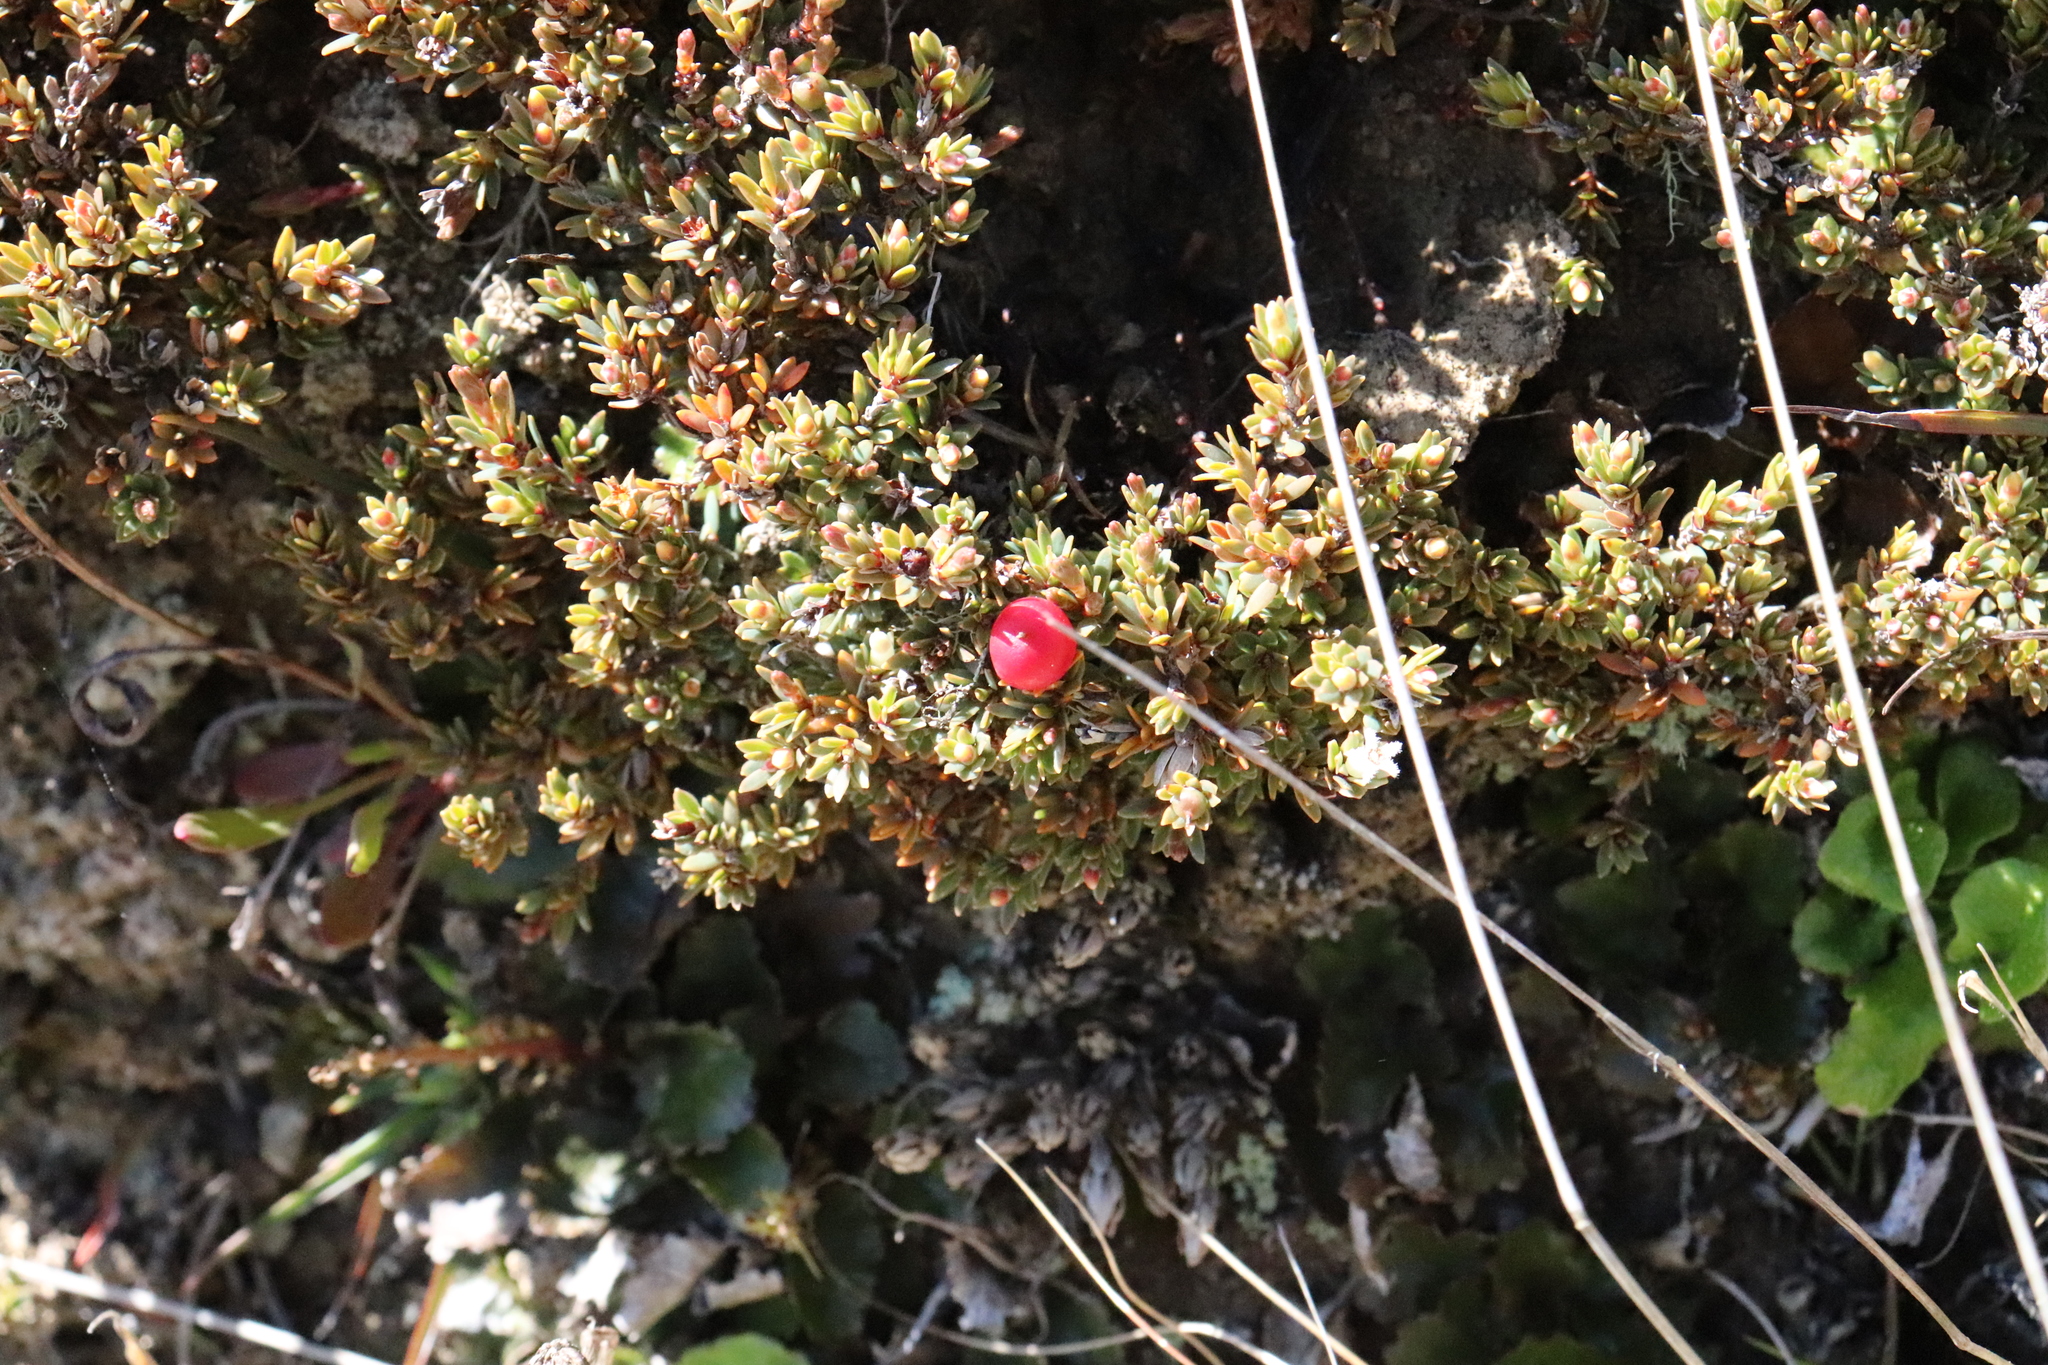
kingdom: Plantae
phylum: Tracheophyta
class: Magnoliopsida
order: Ericales
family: Ericaceae
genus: Pentachondra
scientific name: Pentachondra pumila
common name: Carpet-heath
